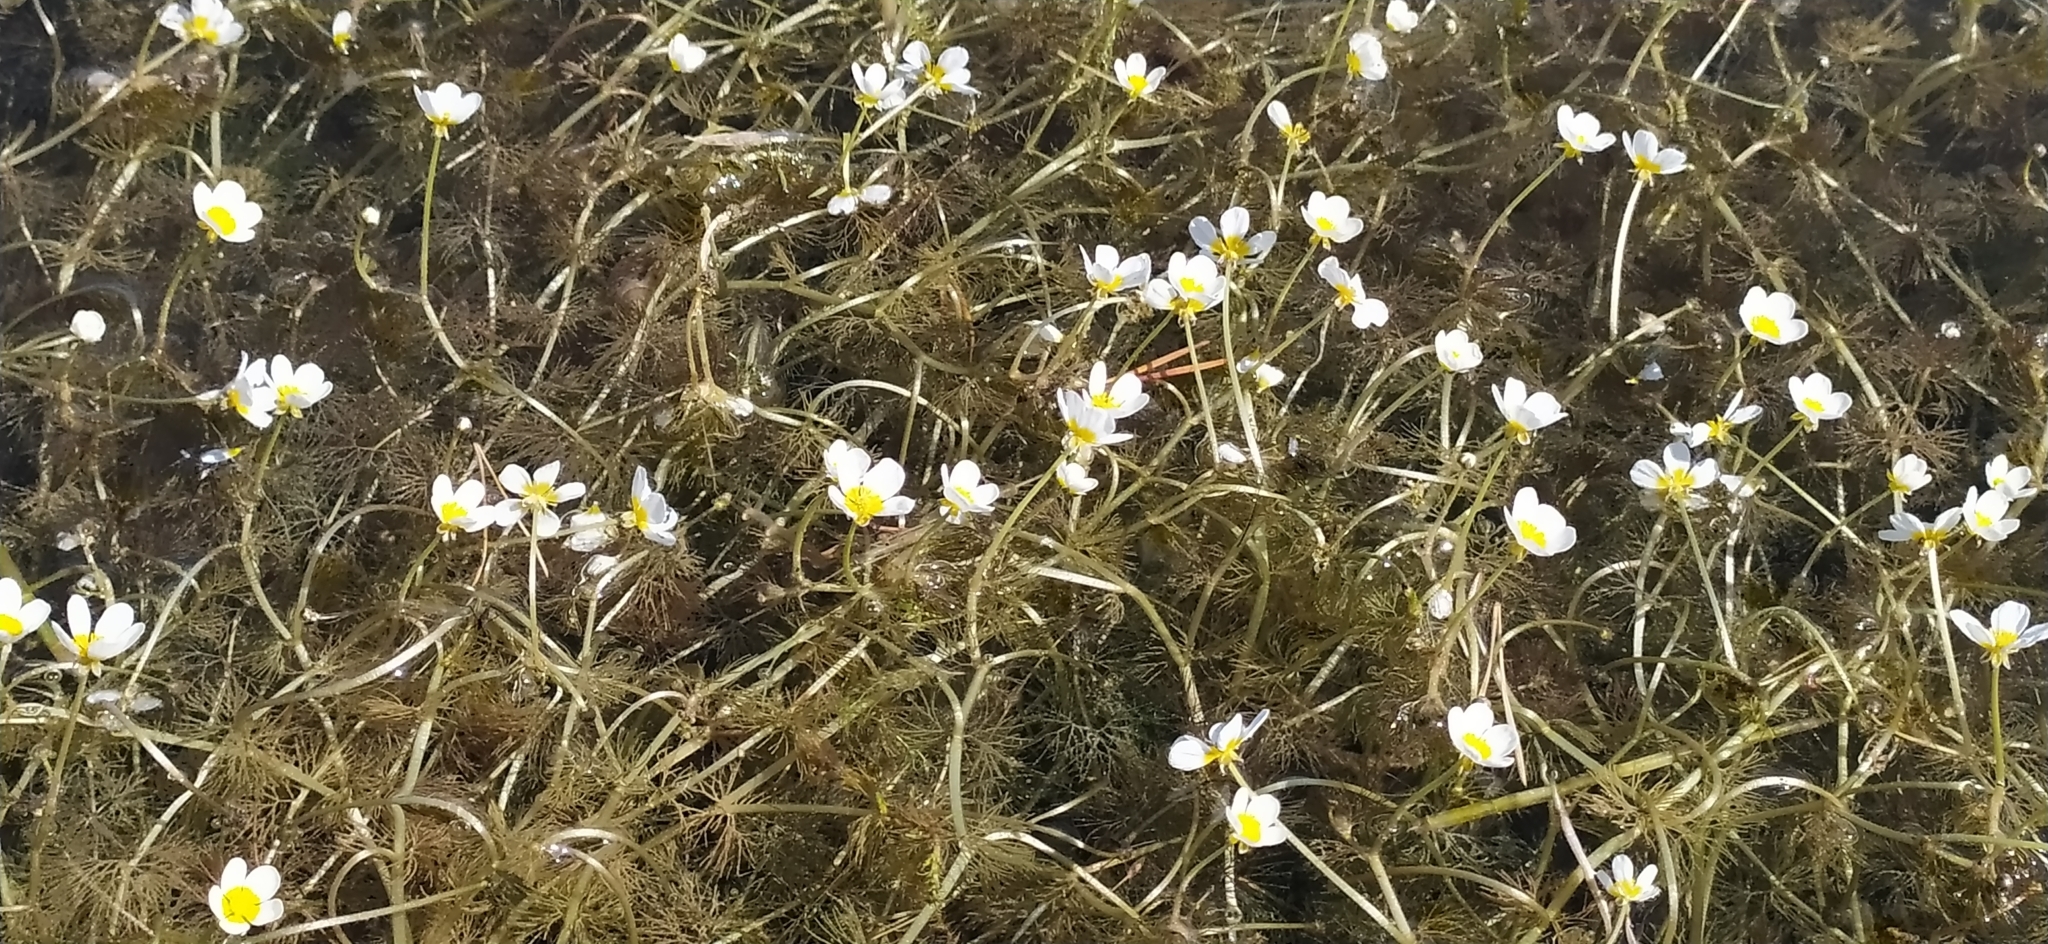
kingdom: Plantae
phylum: Tracheophyta
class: Magnoliopsida
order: Ranunculales
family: Ranunculaceae
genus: Ranunculus
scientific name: Ranunculus circinatus
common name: Fan-leaved water-crowfoot
